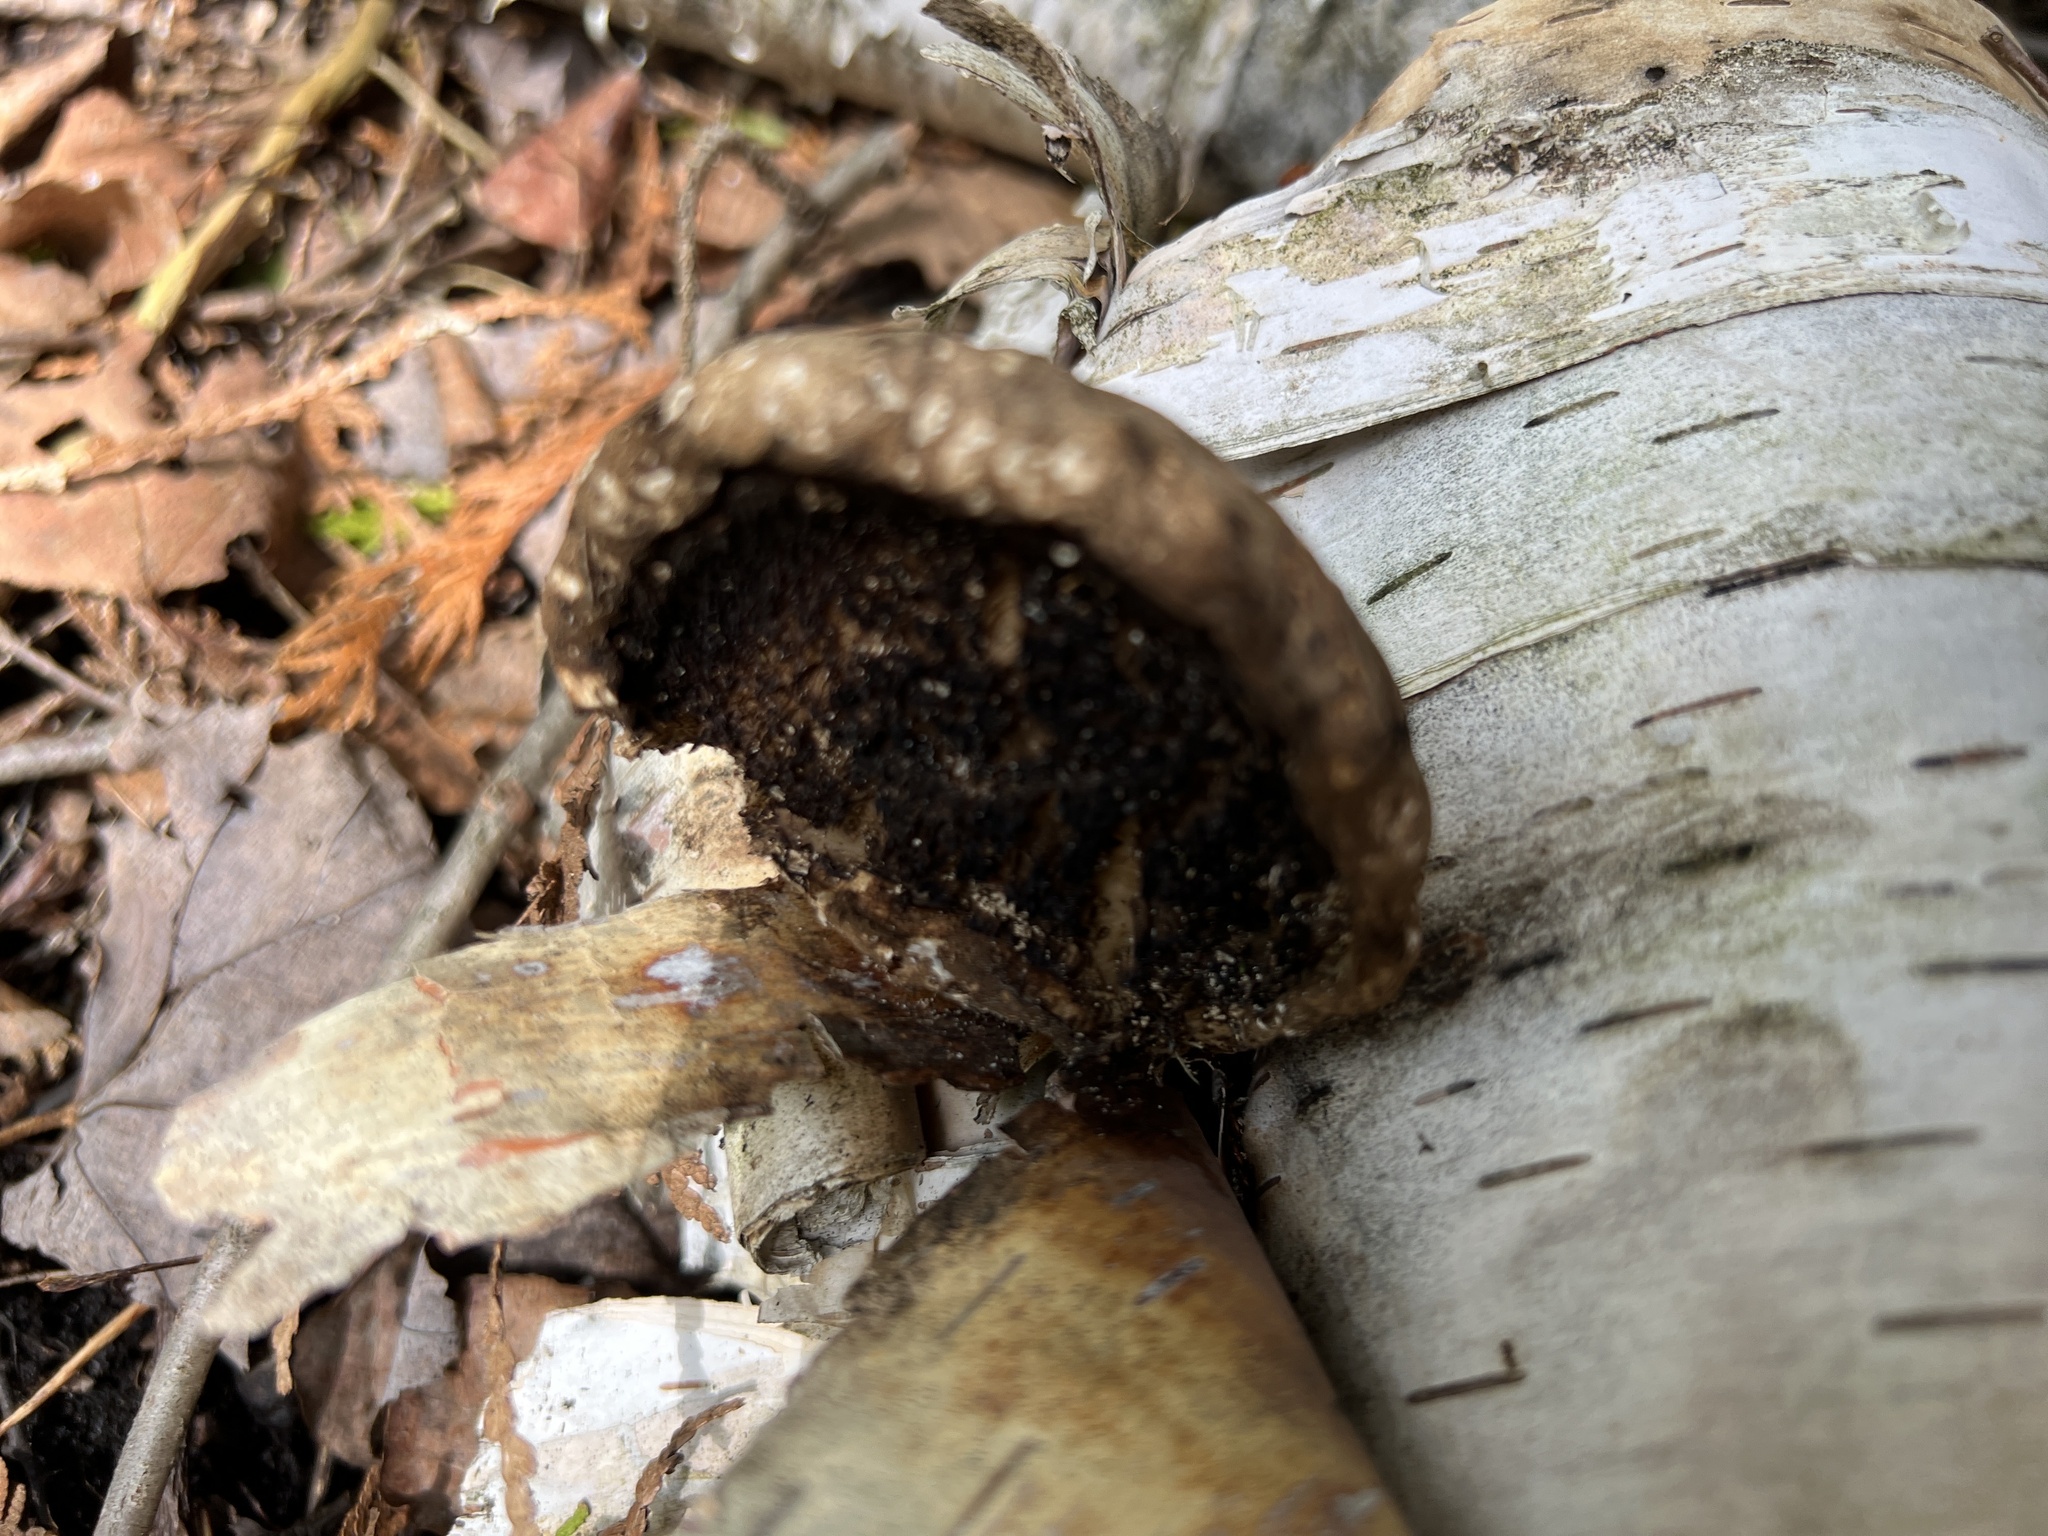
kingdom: Fungi
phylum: Basidiomycota
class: Agaricomycetes
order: Polyporales
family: Fomitopsidaceae
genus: Fomitopsis
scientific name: Fomitopsis betulina
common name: Birch polypore
